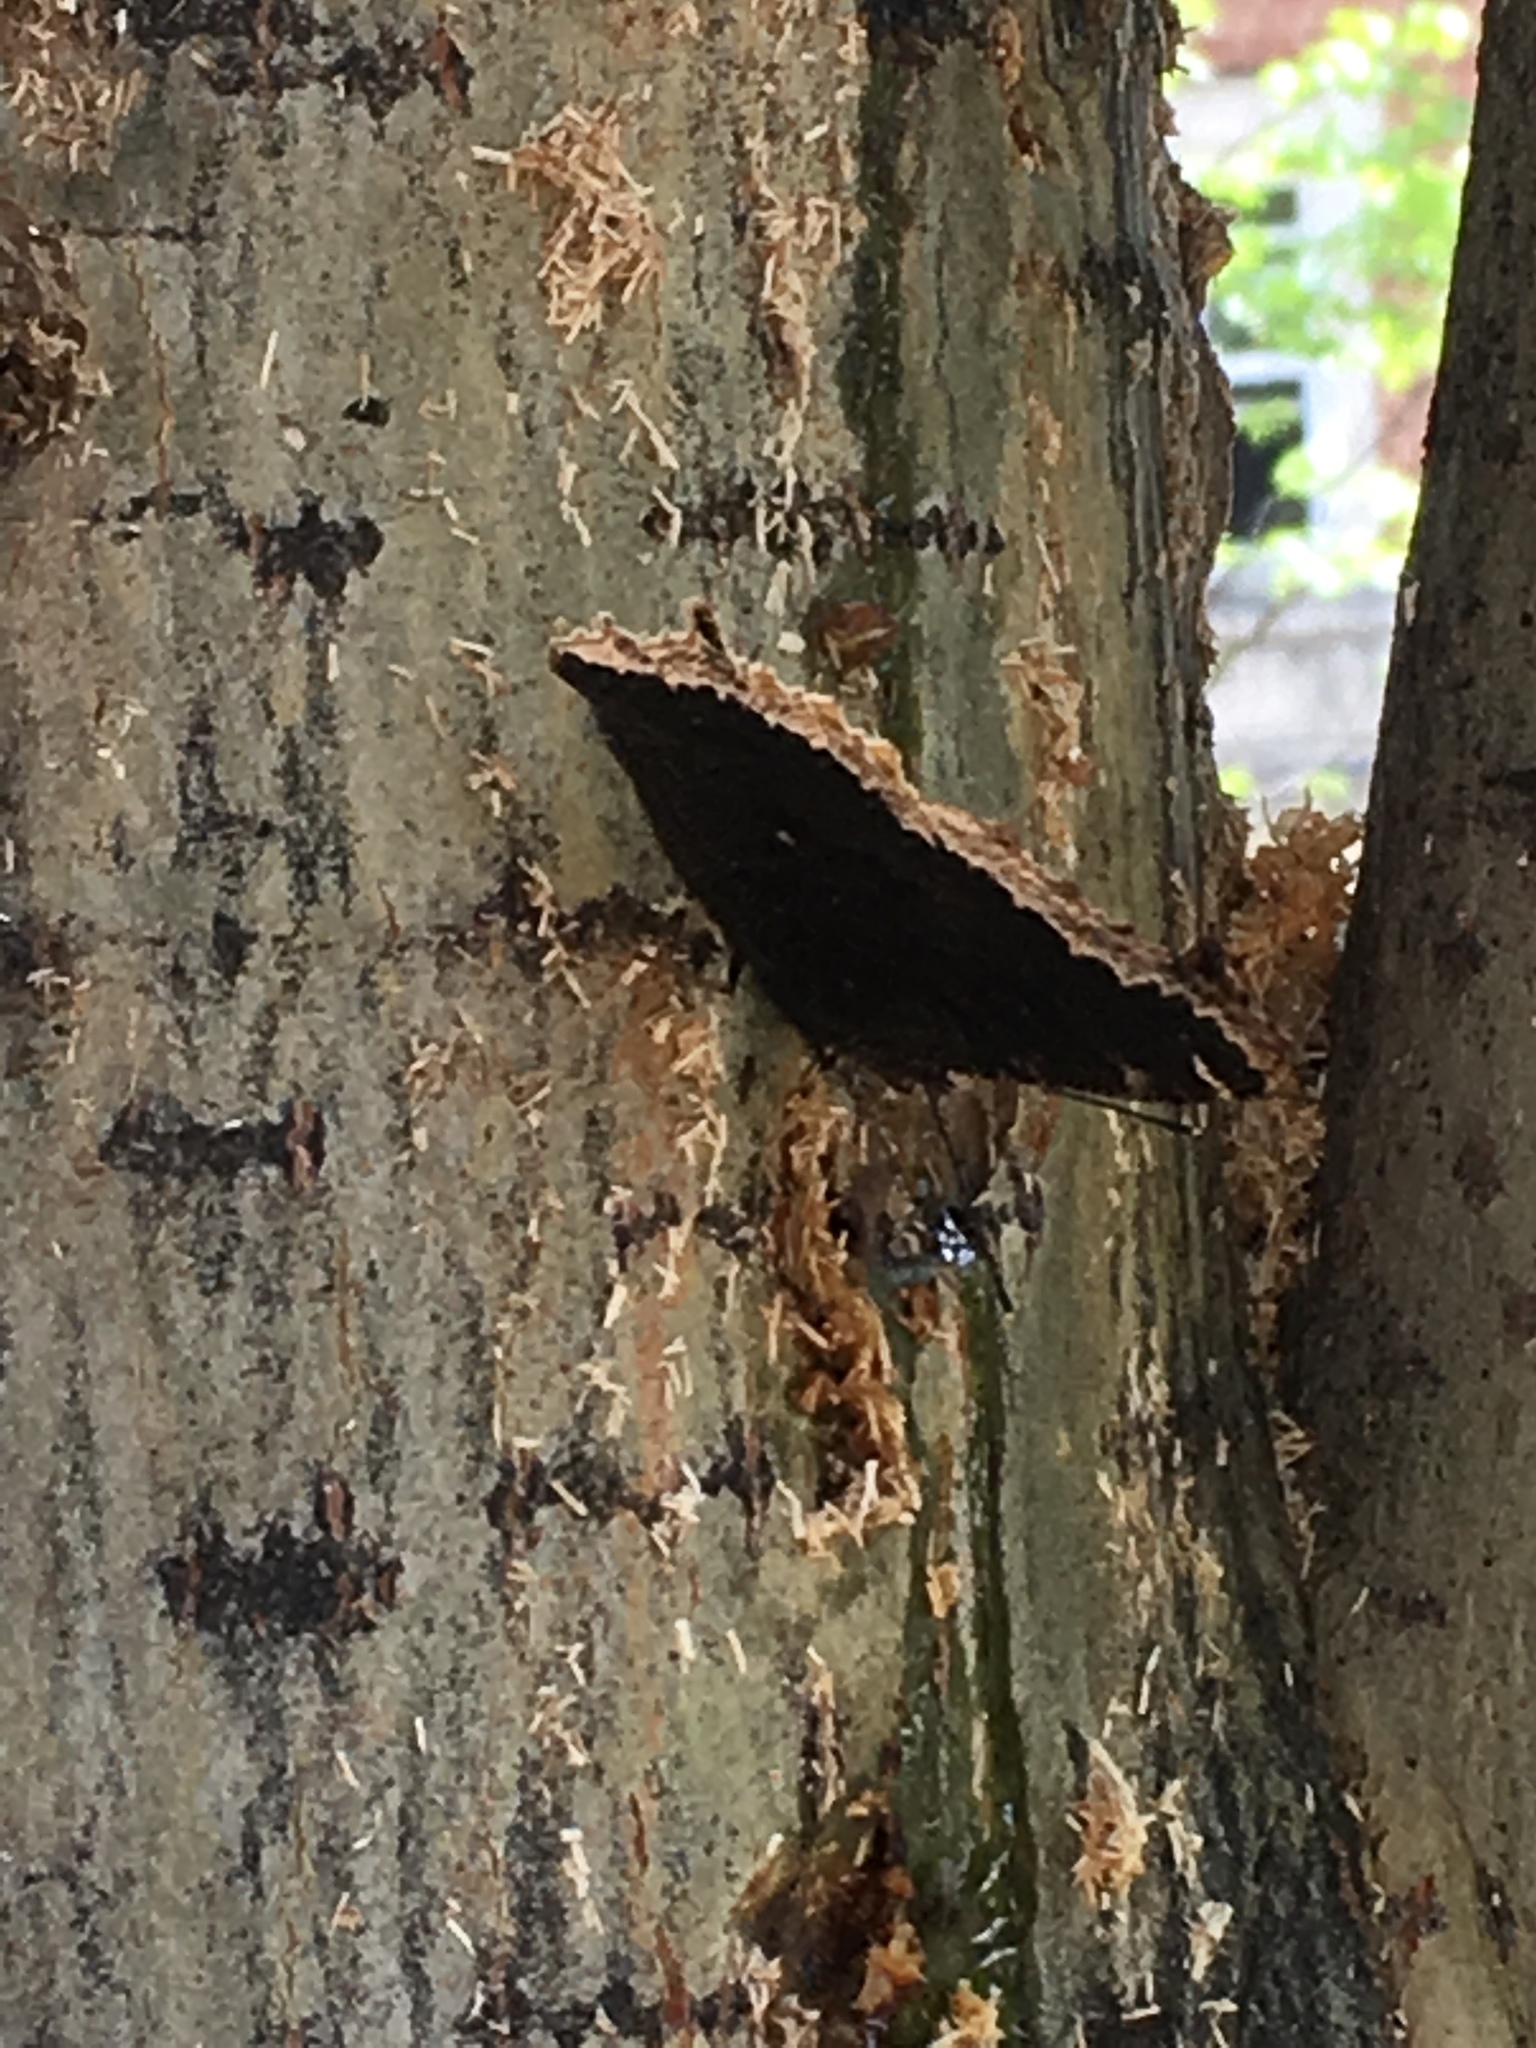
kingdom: Animalia
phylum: Arthropoda
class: Insecta
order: Lepidoptera
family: Nymphalidae
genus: Nymphalis
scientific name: Nymphalis antiopa
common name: Camberwell beauty
